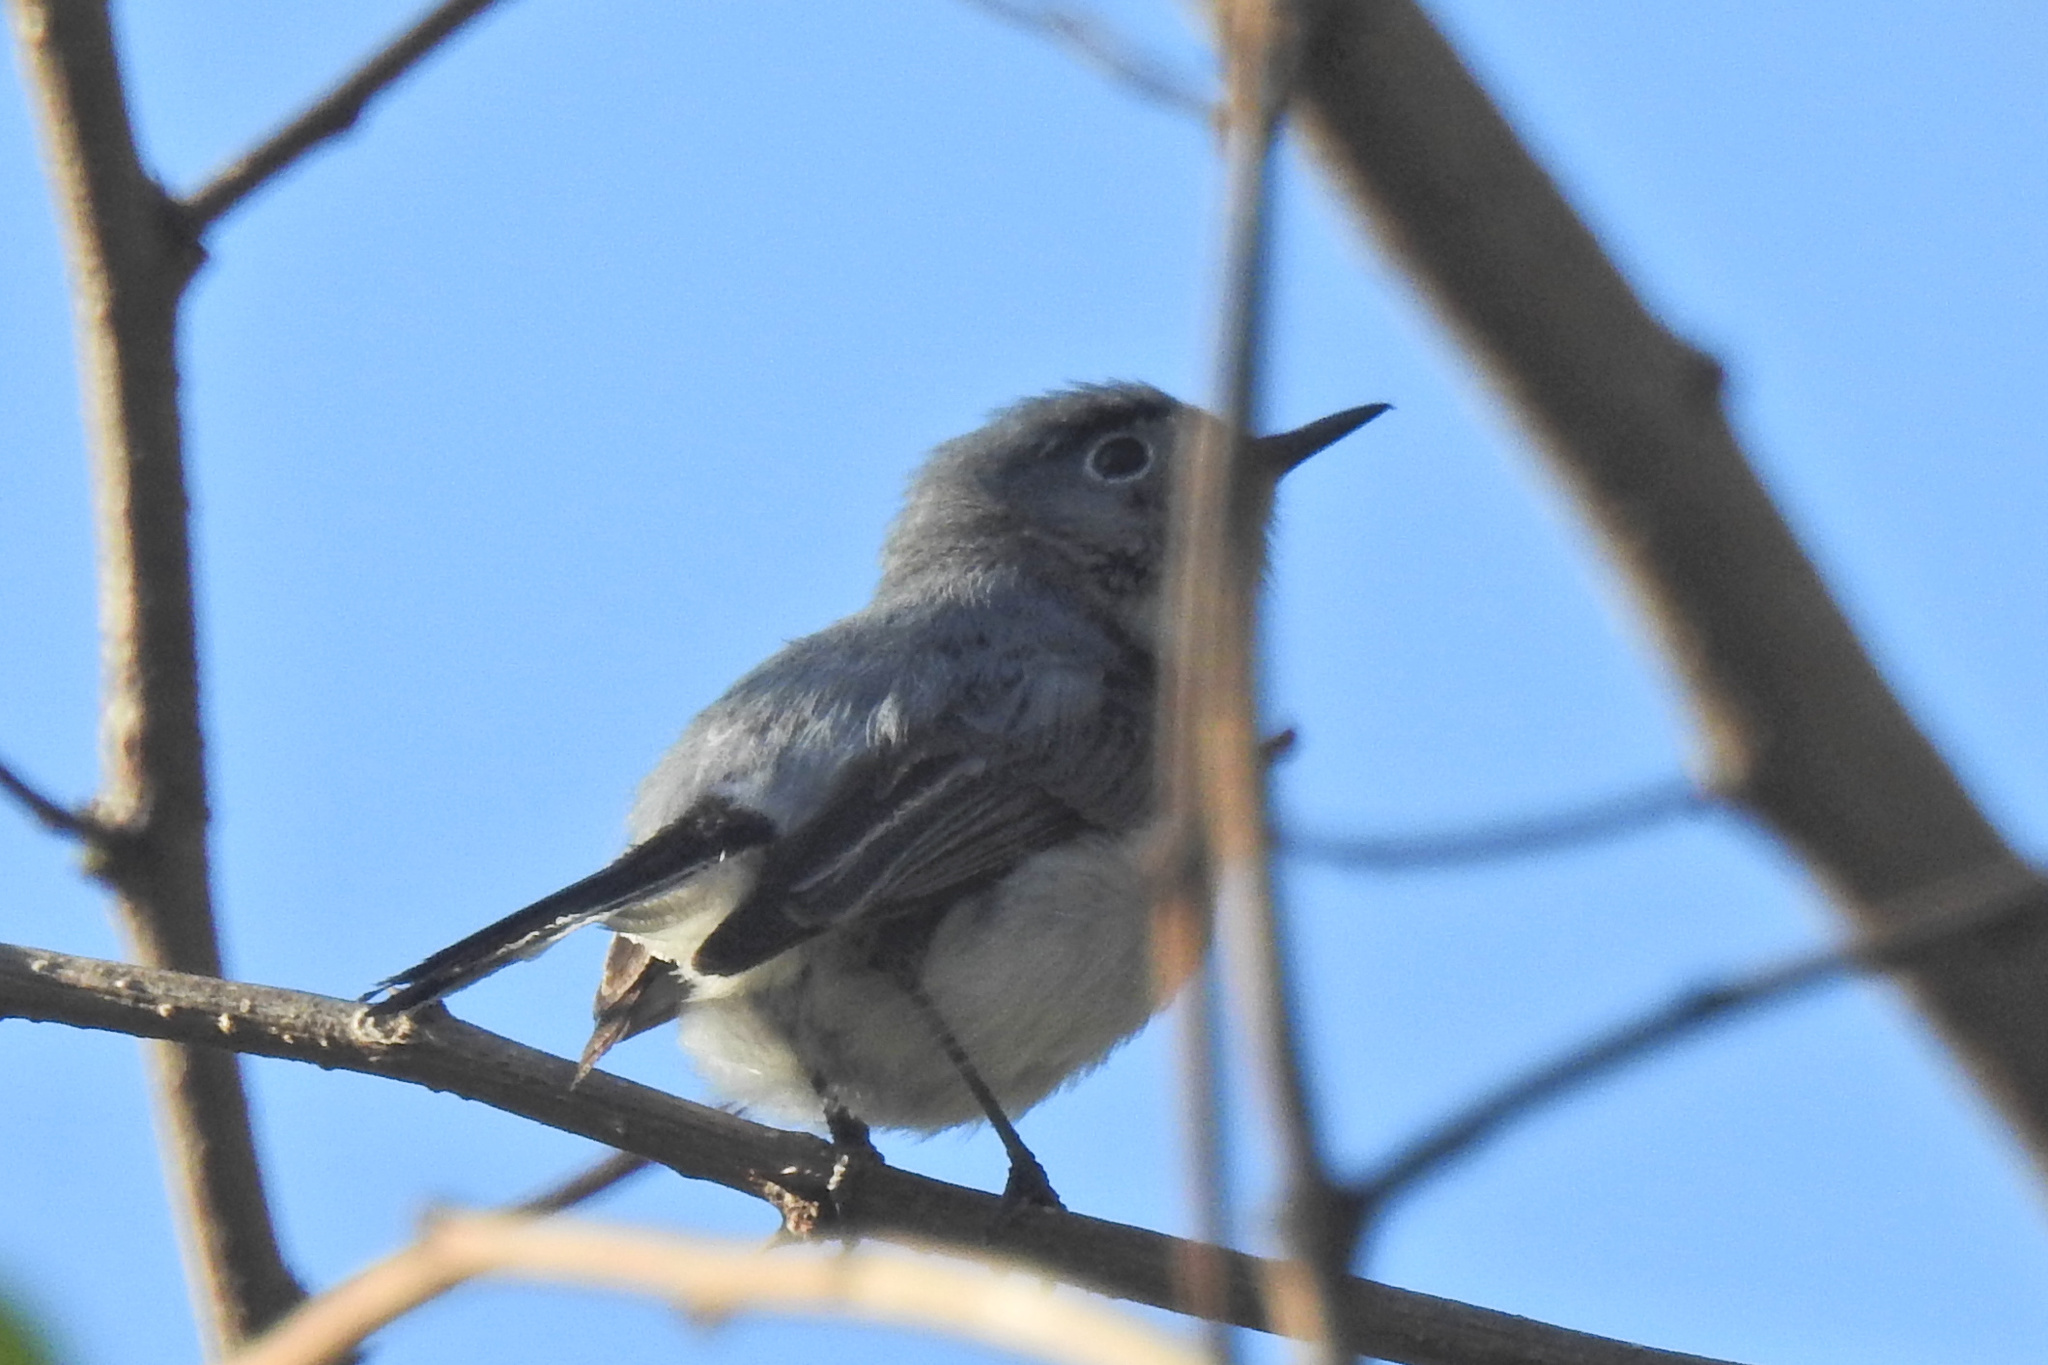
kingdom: Animalia
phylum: Chordata
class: Aves
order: Passeriformes
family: Polioptilidae
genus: Polioptila
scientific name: Polioptila caerulea
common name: Blue-gray gnatcatcher
